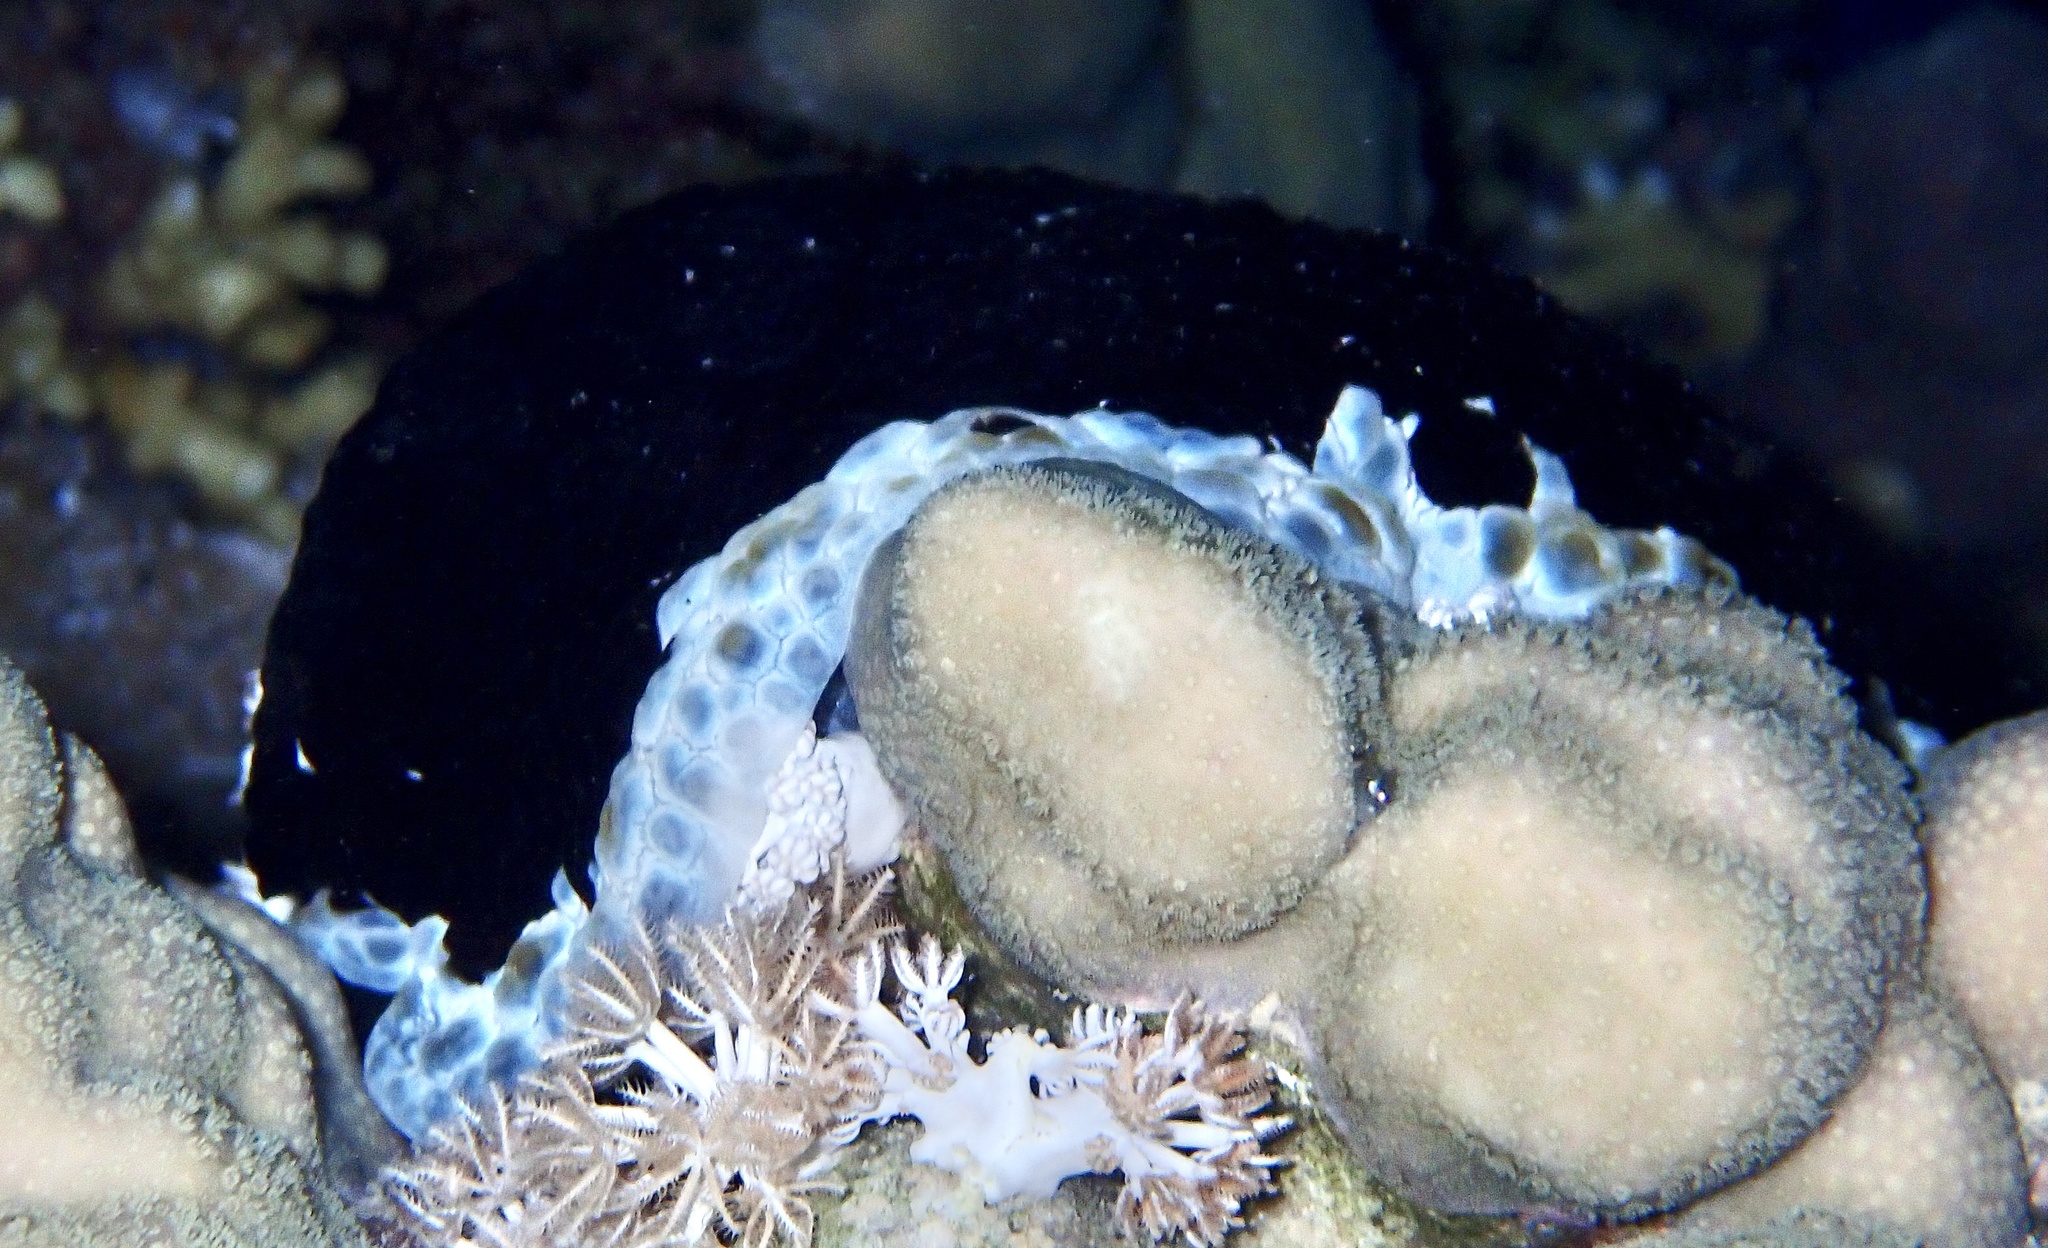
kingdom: Animalia
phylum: Mollusca
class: Gastropoda
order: Pleurobranchida
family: Pleurobranchidae
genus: Pleurobranchus
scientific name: Pleurobranchus grandis
